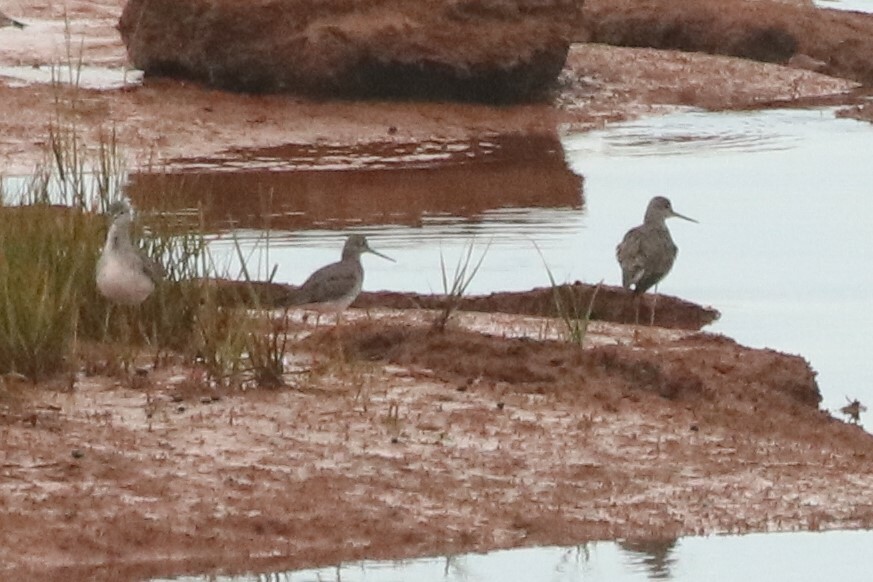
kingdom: Animalia
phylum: Chordata
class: Aves
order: Charadriiformes
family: Scolopacidae
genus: Tringa
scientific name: Tringa melanoleuca
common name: Greater yellowlegs
